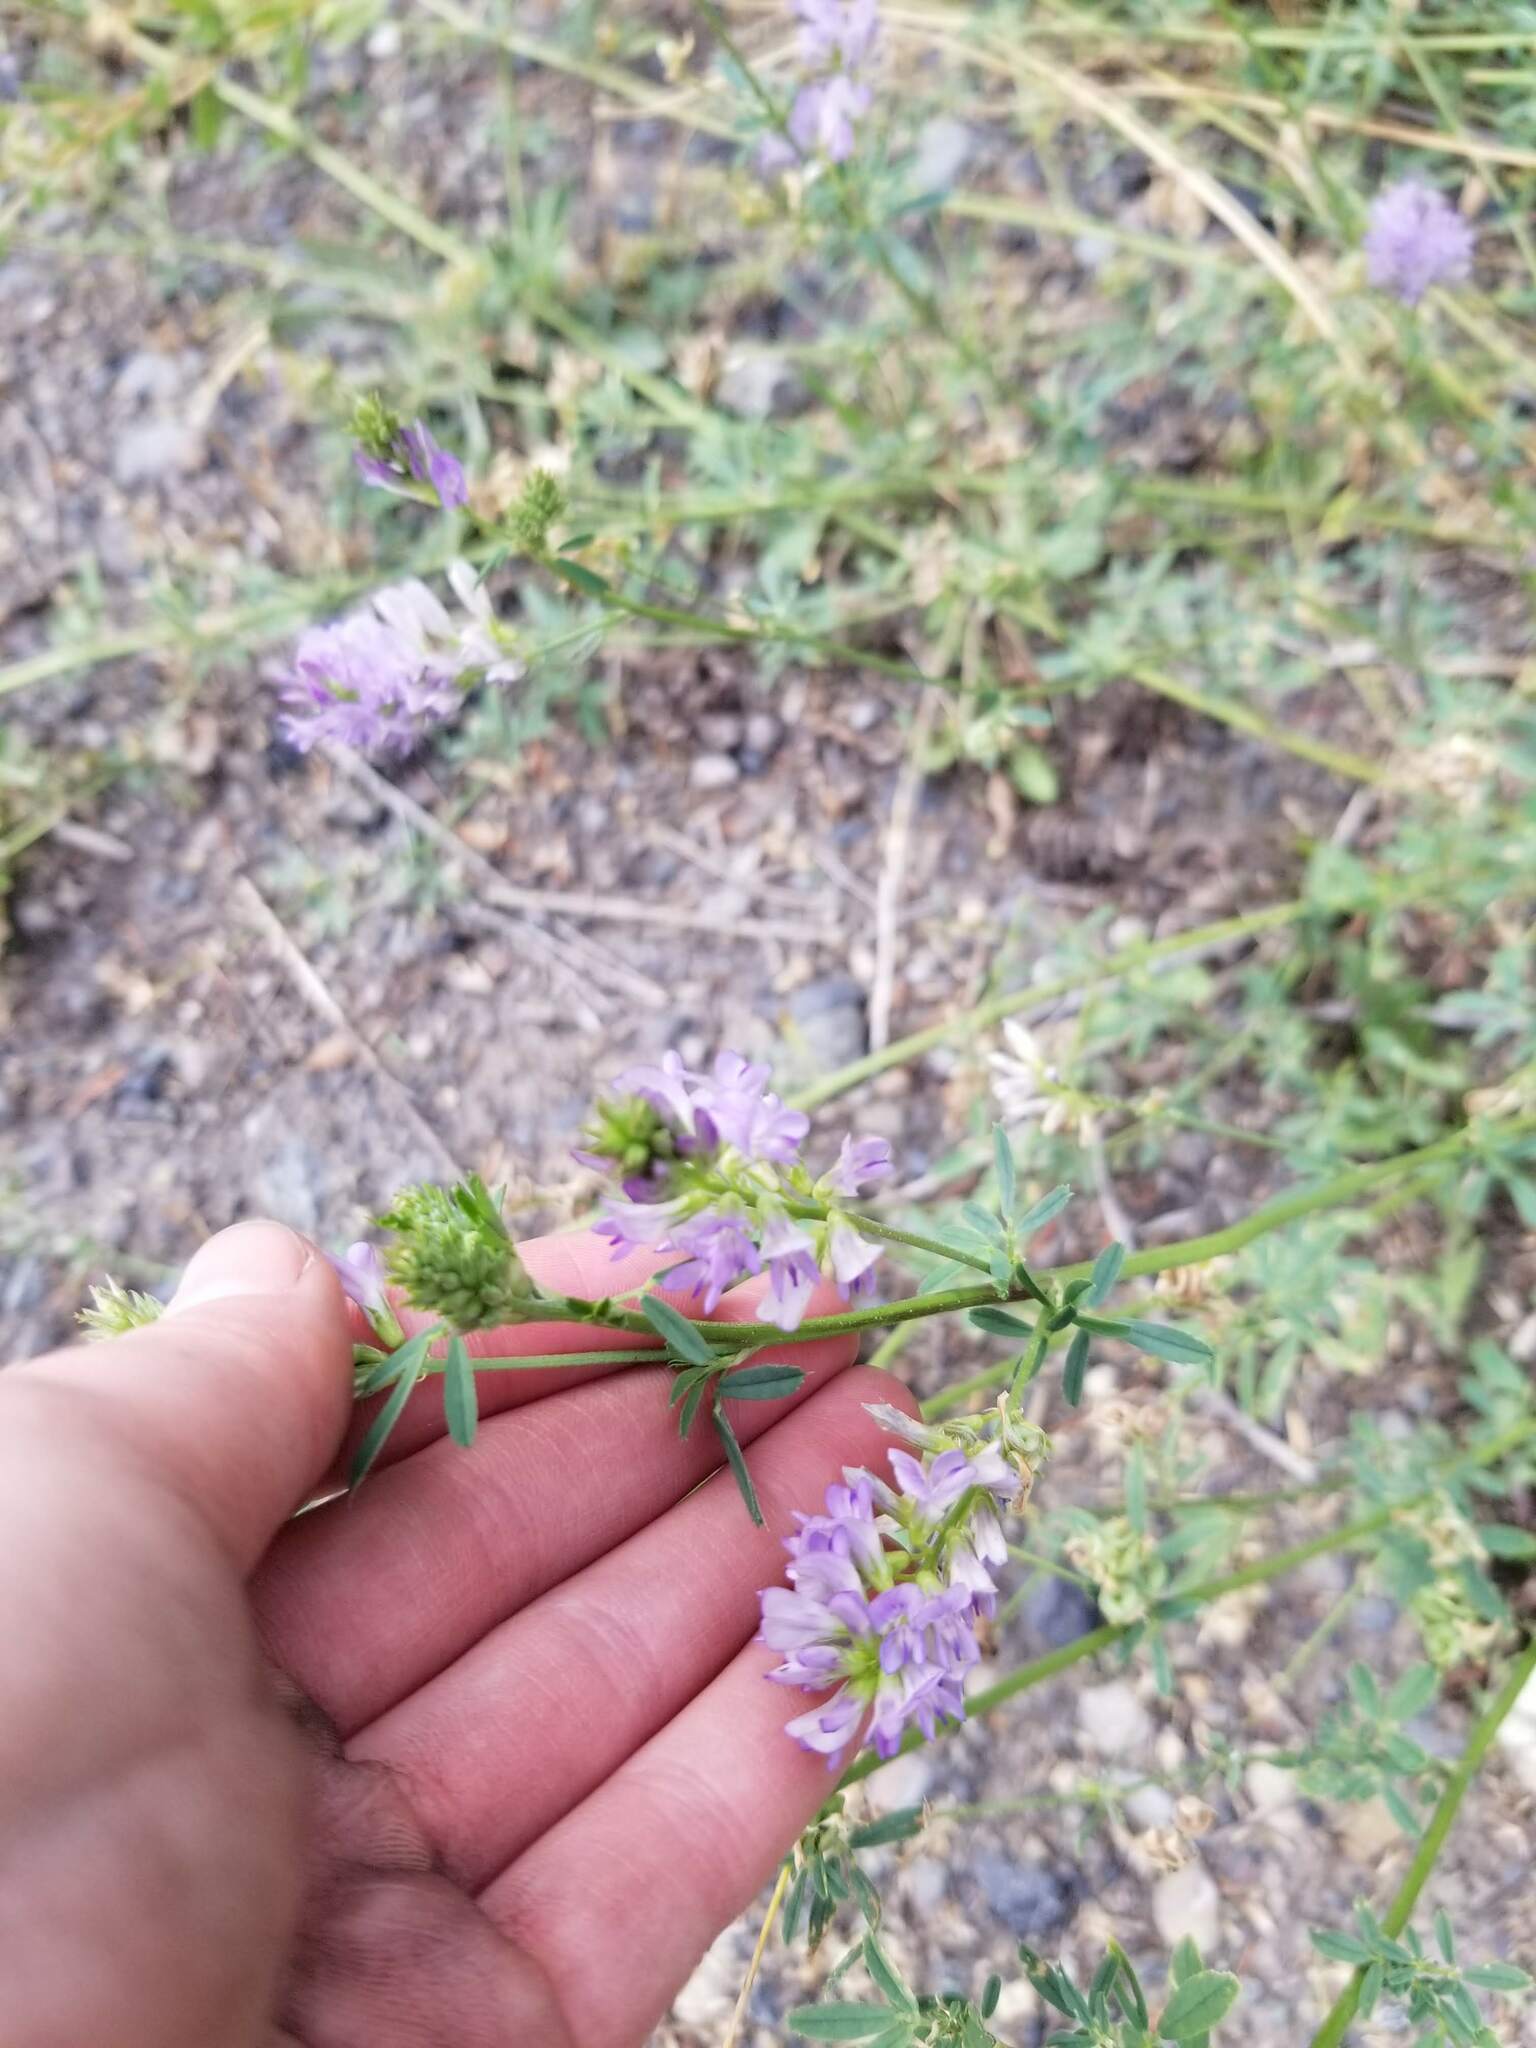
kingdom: Plantae
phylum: Tracheophyta
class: Magnoliopsida
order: Fabales
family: Fabaceae
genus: Medicago
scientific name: Medicago sativa
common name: Alfalfa
